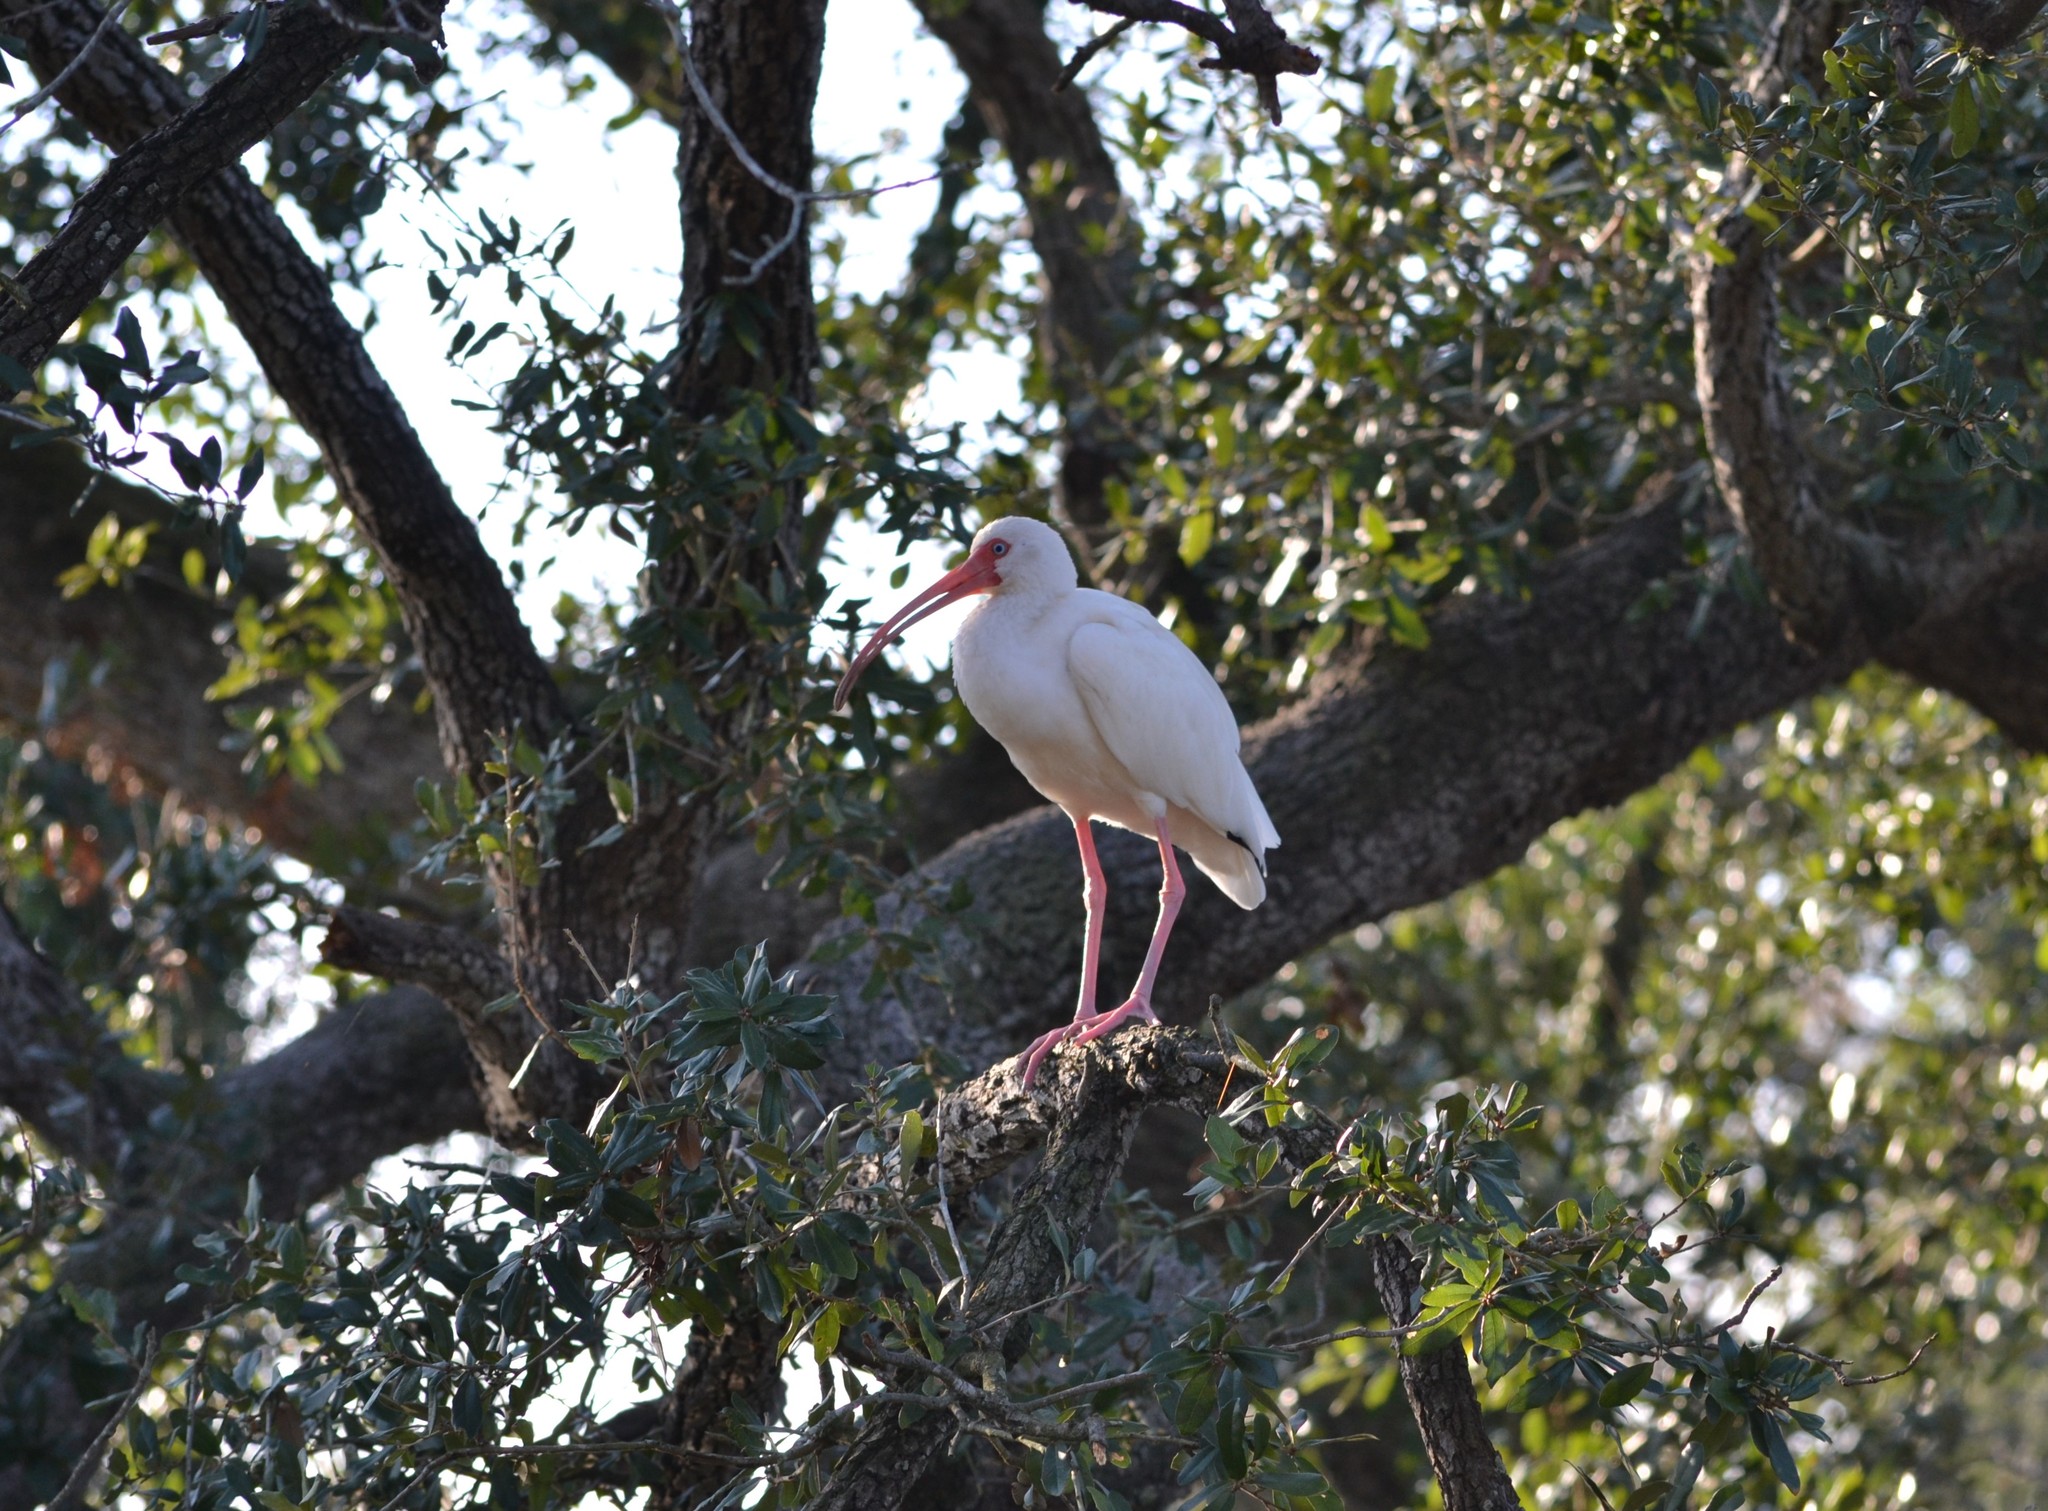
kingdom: Animalia
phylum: Chordata
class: Aves
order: Pelecaniformes
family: Threskiornithidae
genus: Eudocimus
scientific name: Eudocimus albus
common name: White ibis
